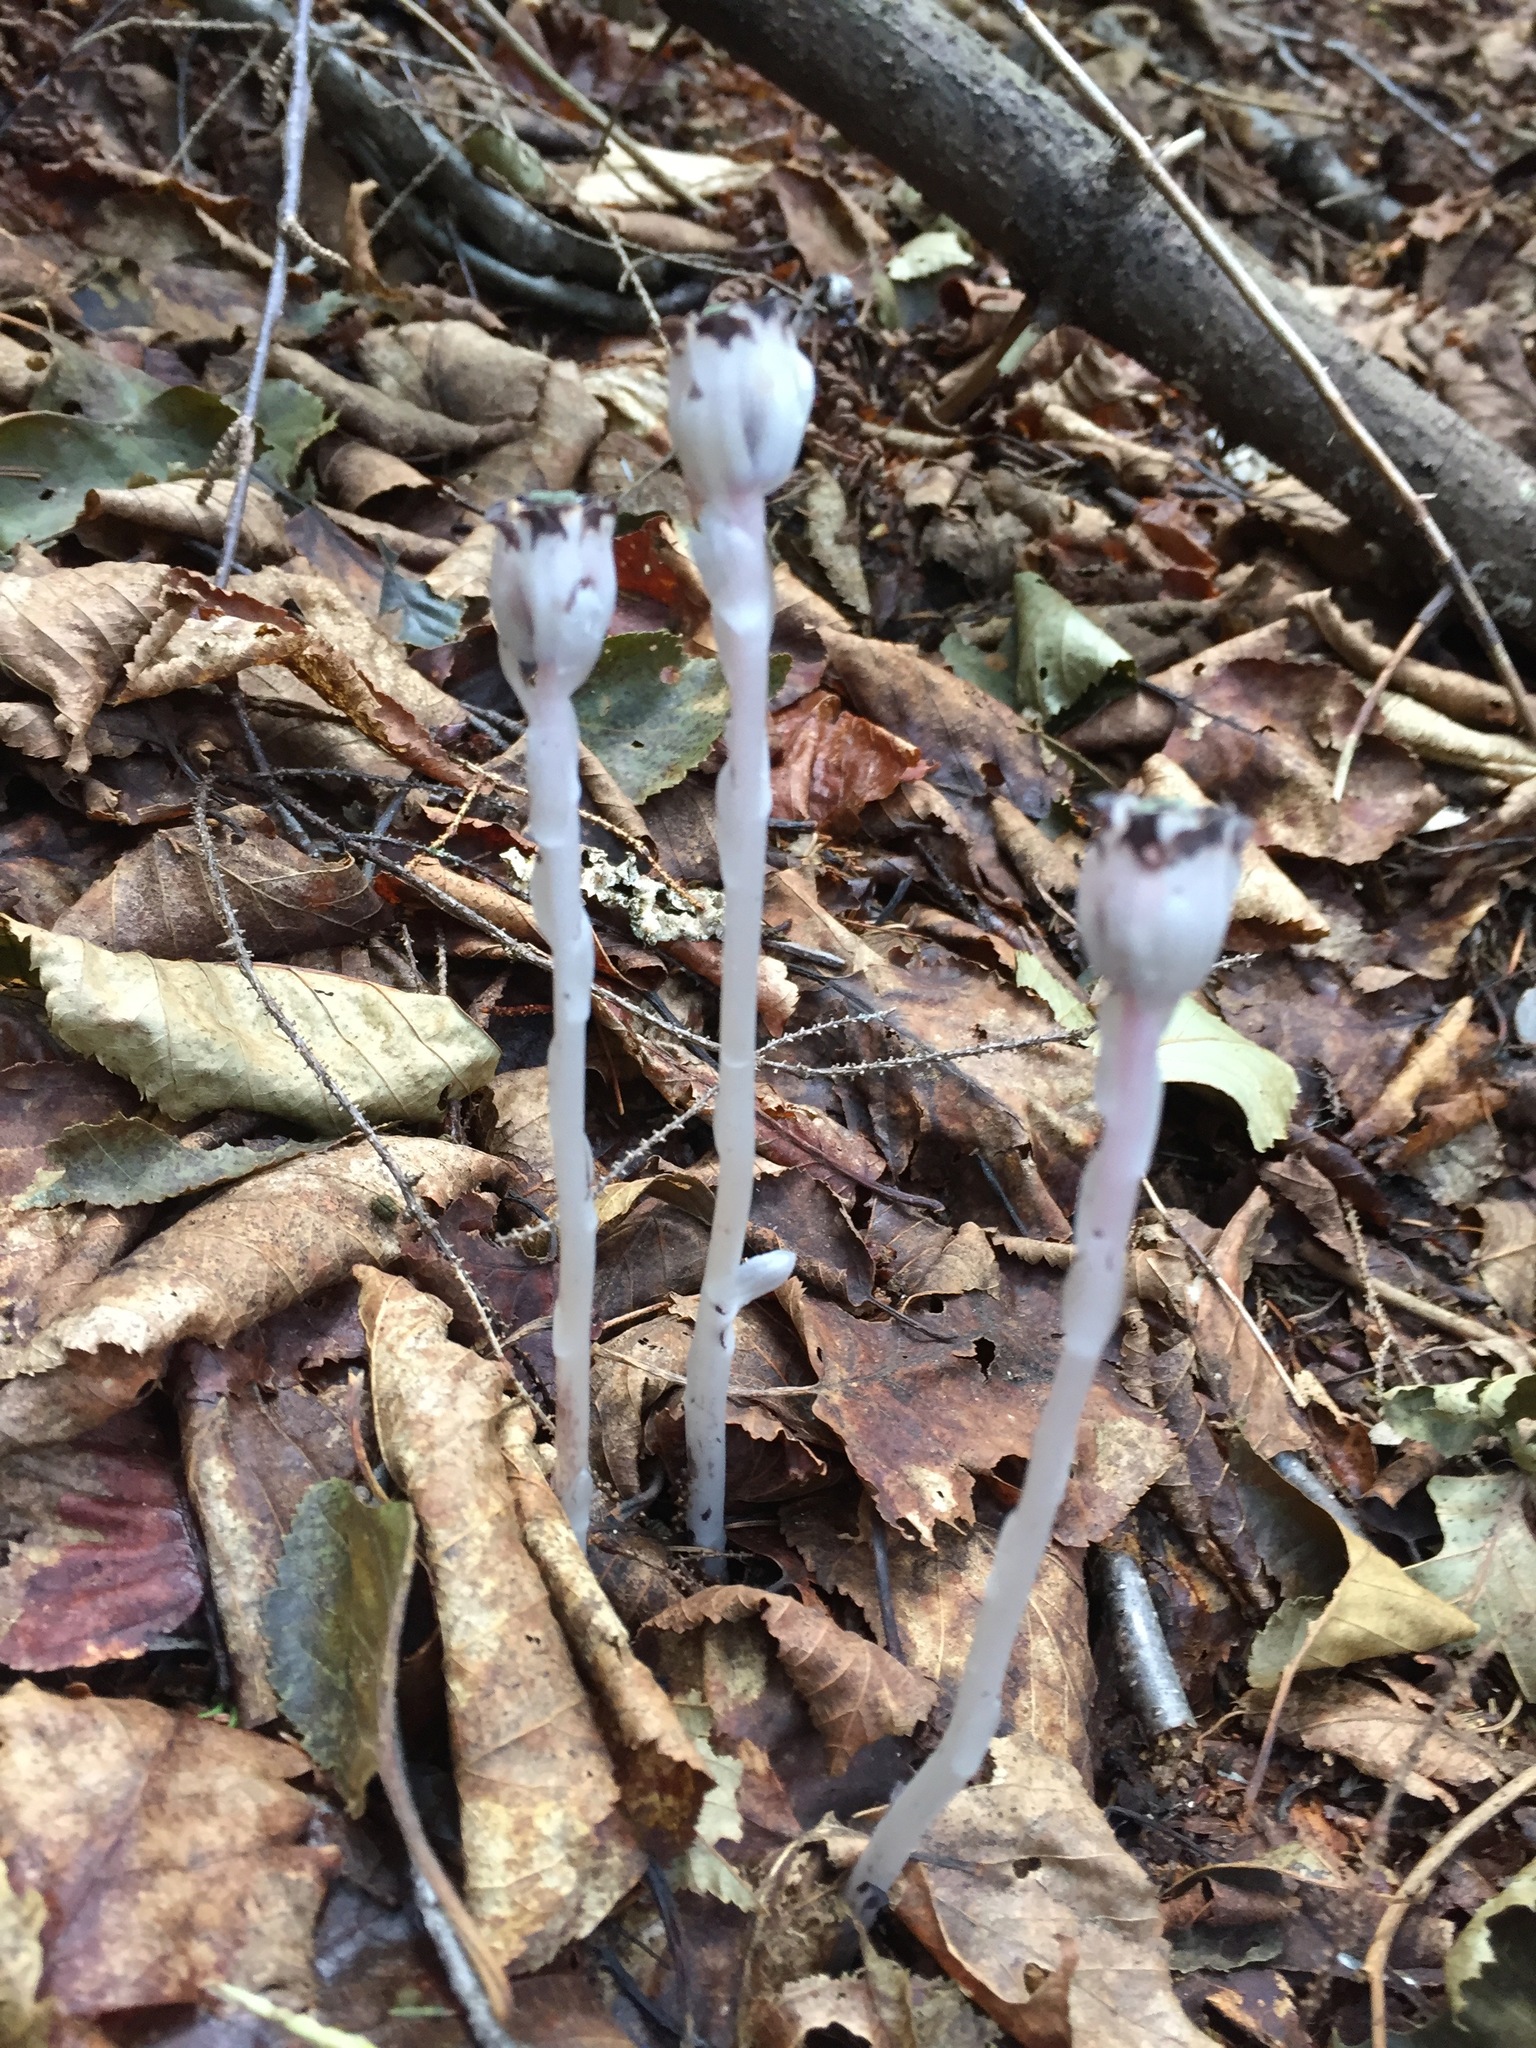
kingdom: Plantae
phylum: Tracheophyta
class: Magnoliopsida
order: Ericales
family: Ericaceae
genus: Monotropa
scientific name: Monotropa uniflora
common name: Convulsion root
